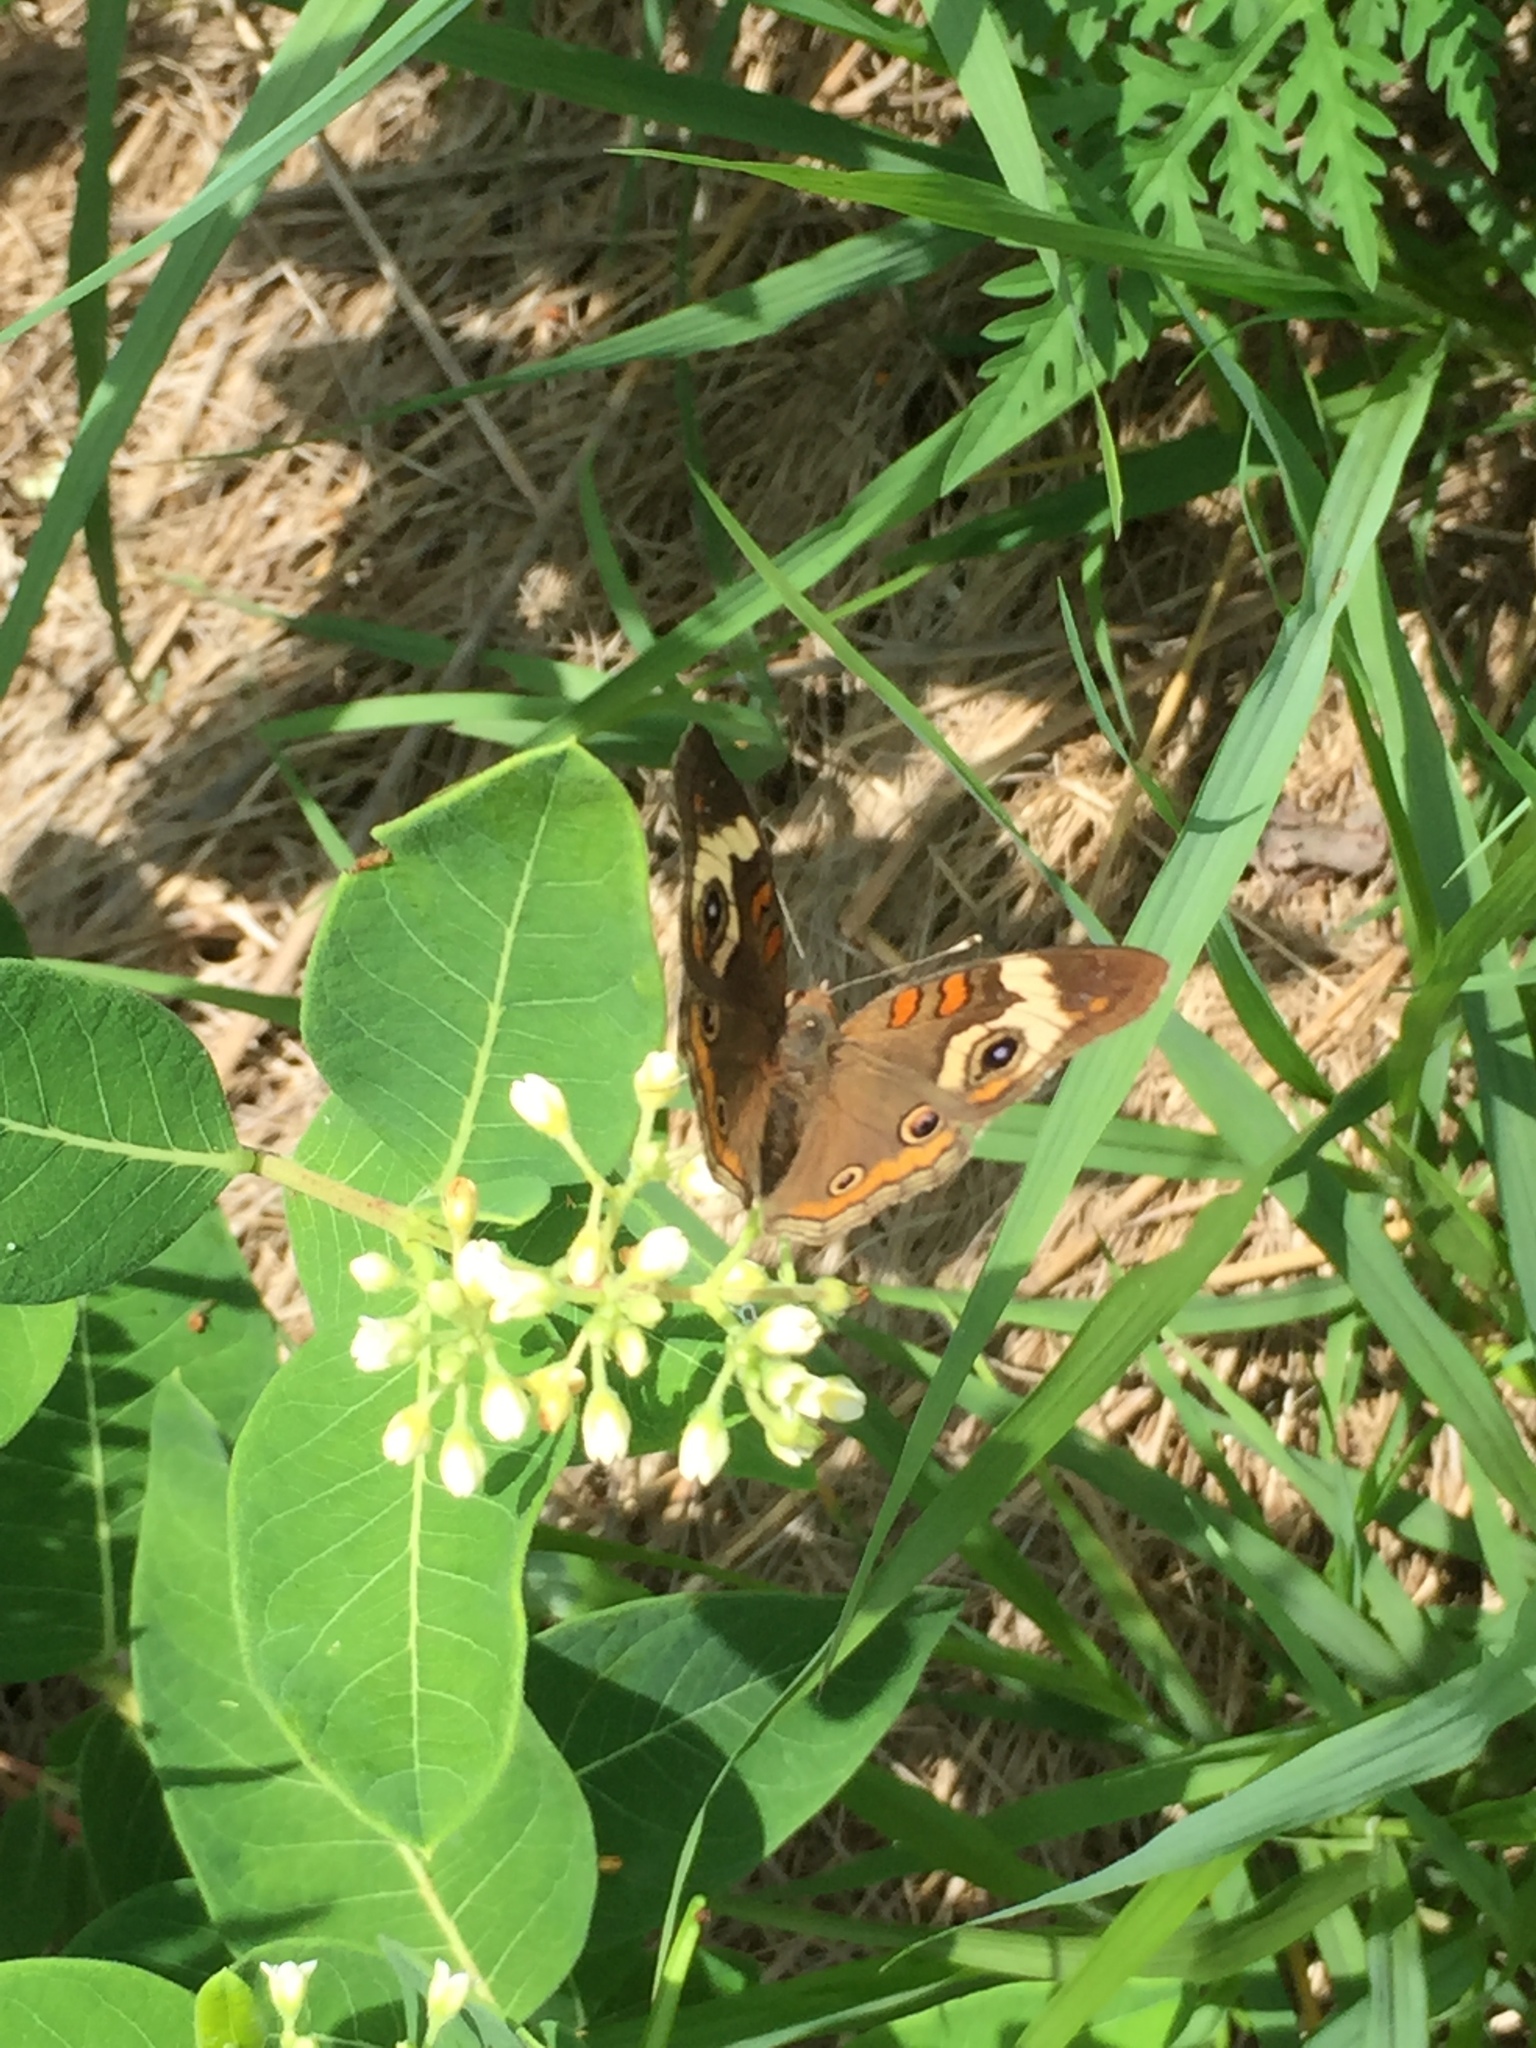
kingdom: Animalia
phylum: Arthropoda
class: Insecta
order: Lepidoptera
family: Nymphalidae
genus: Junonia
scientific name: Junonia coenia
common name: Common buckeye
